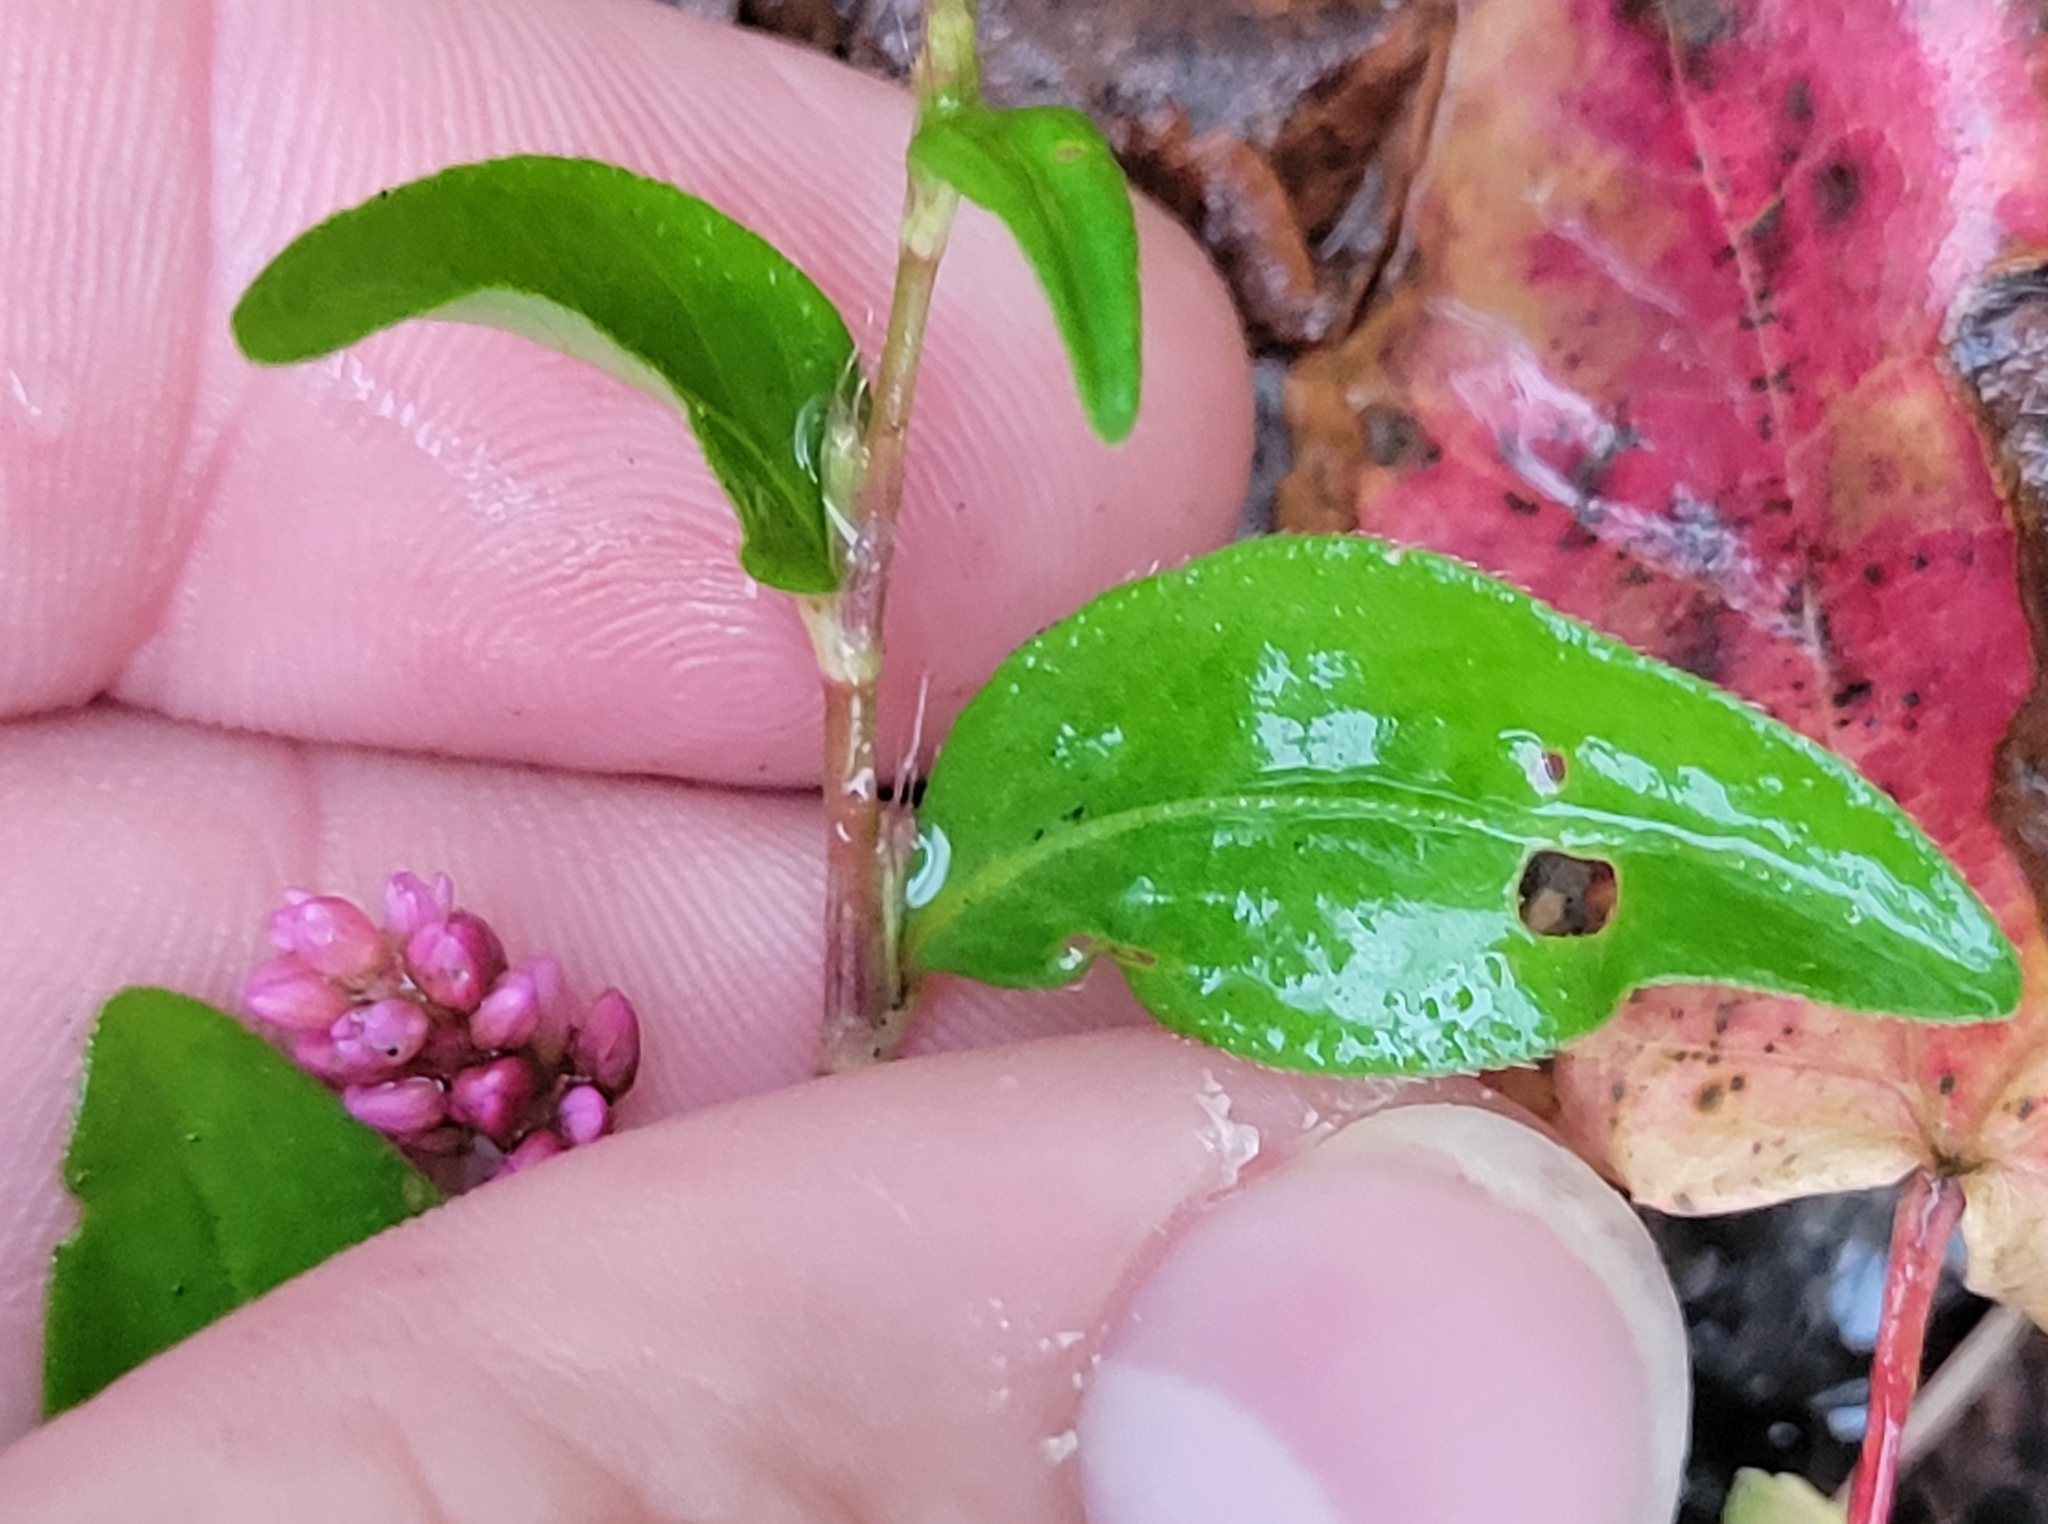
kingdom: Plantae
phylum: Tracheophyta
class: Magnoliopsida
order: Caryophyllales
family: Polygonaceae
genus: Persicaria
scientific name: Persicaria longiseta
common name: Bristly lady's-thumb
